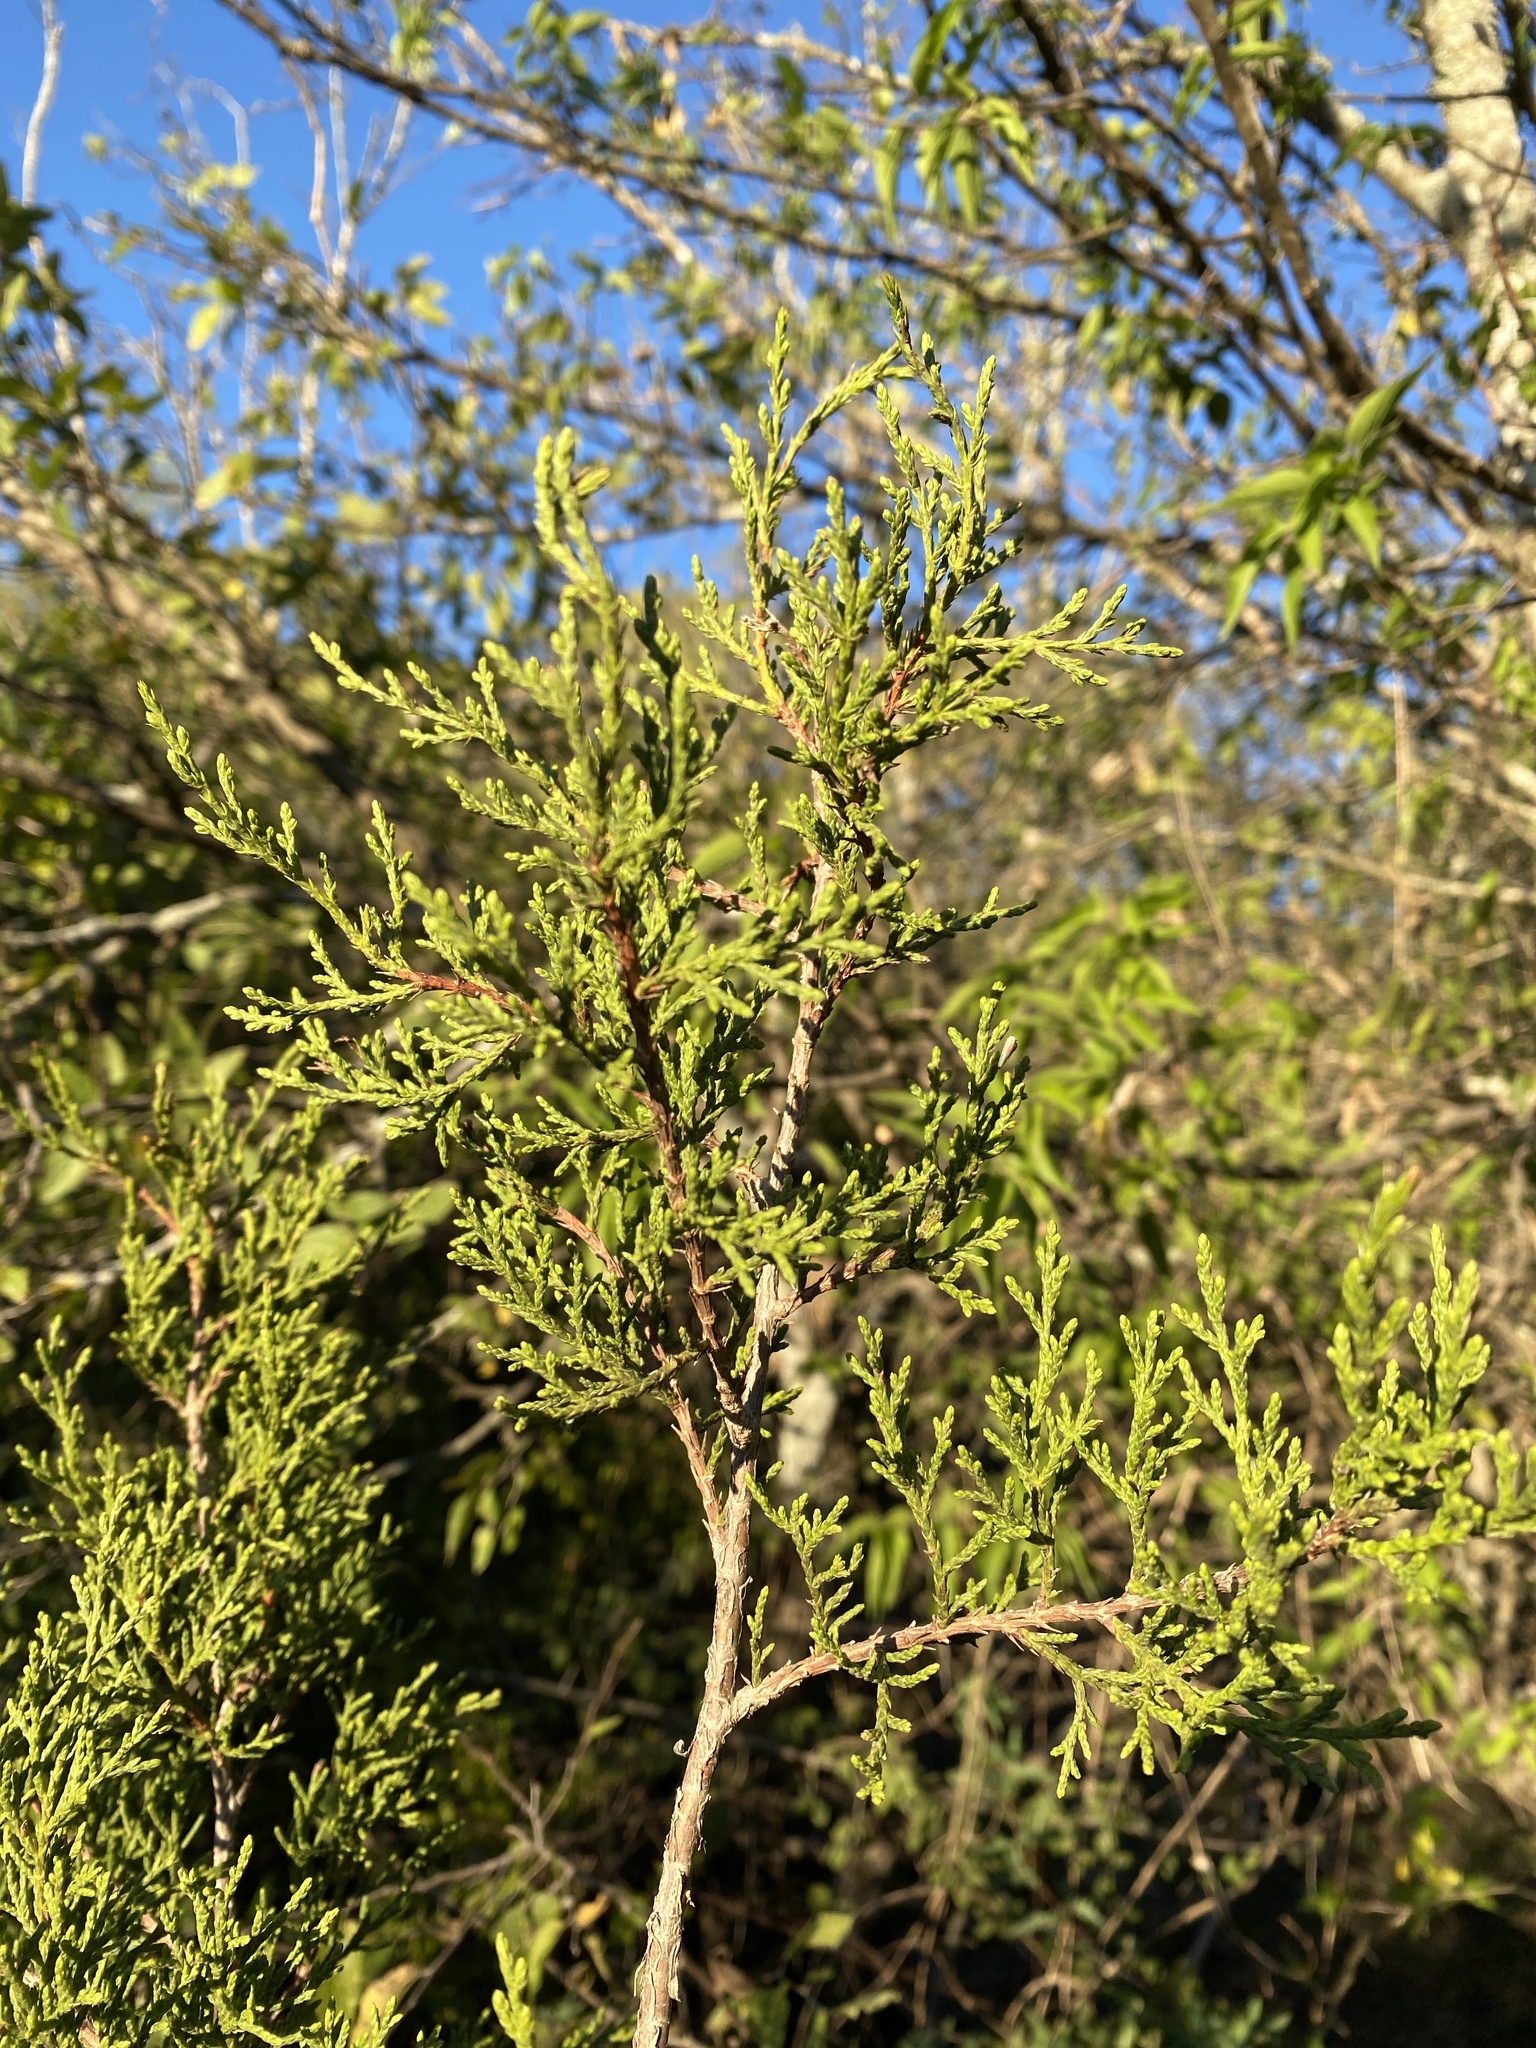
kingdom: Plantae
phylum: Tracheophyta
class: Pinopsida
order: Pinales
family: Cupressaceae
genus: Juniperus
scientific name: Juniperus ashei
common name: Mexican juniper
